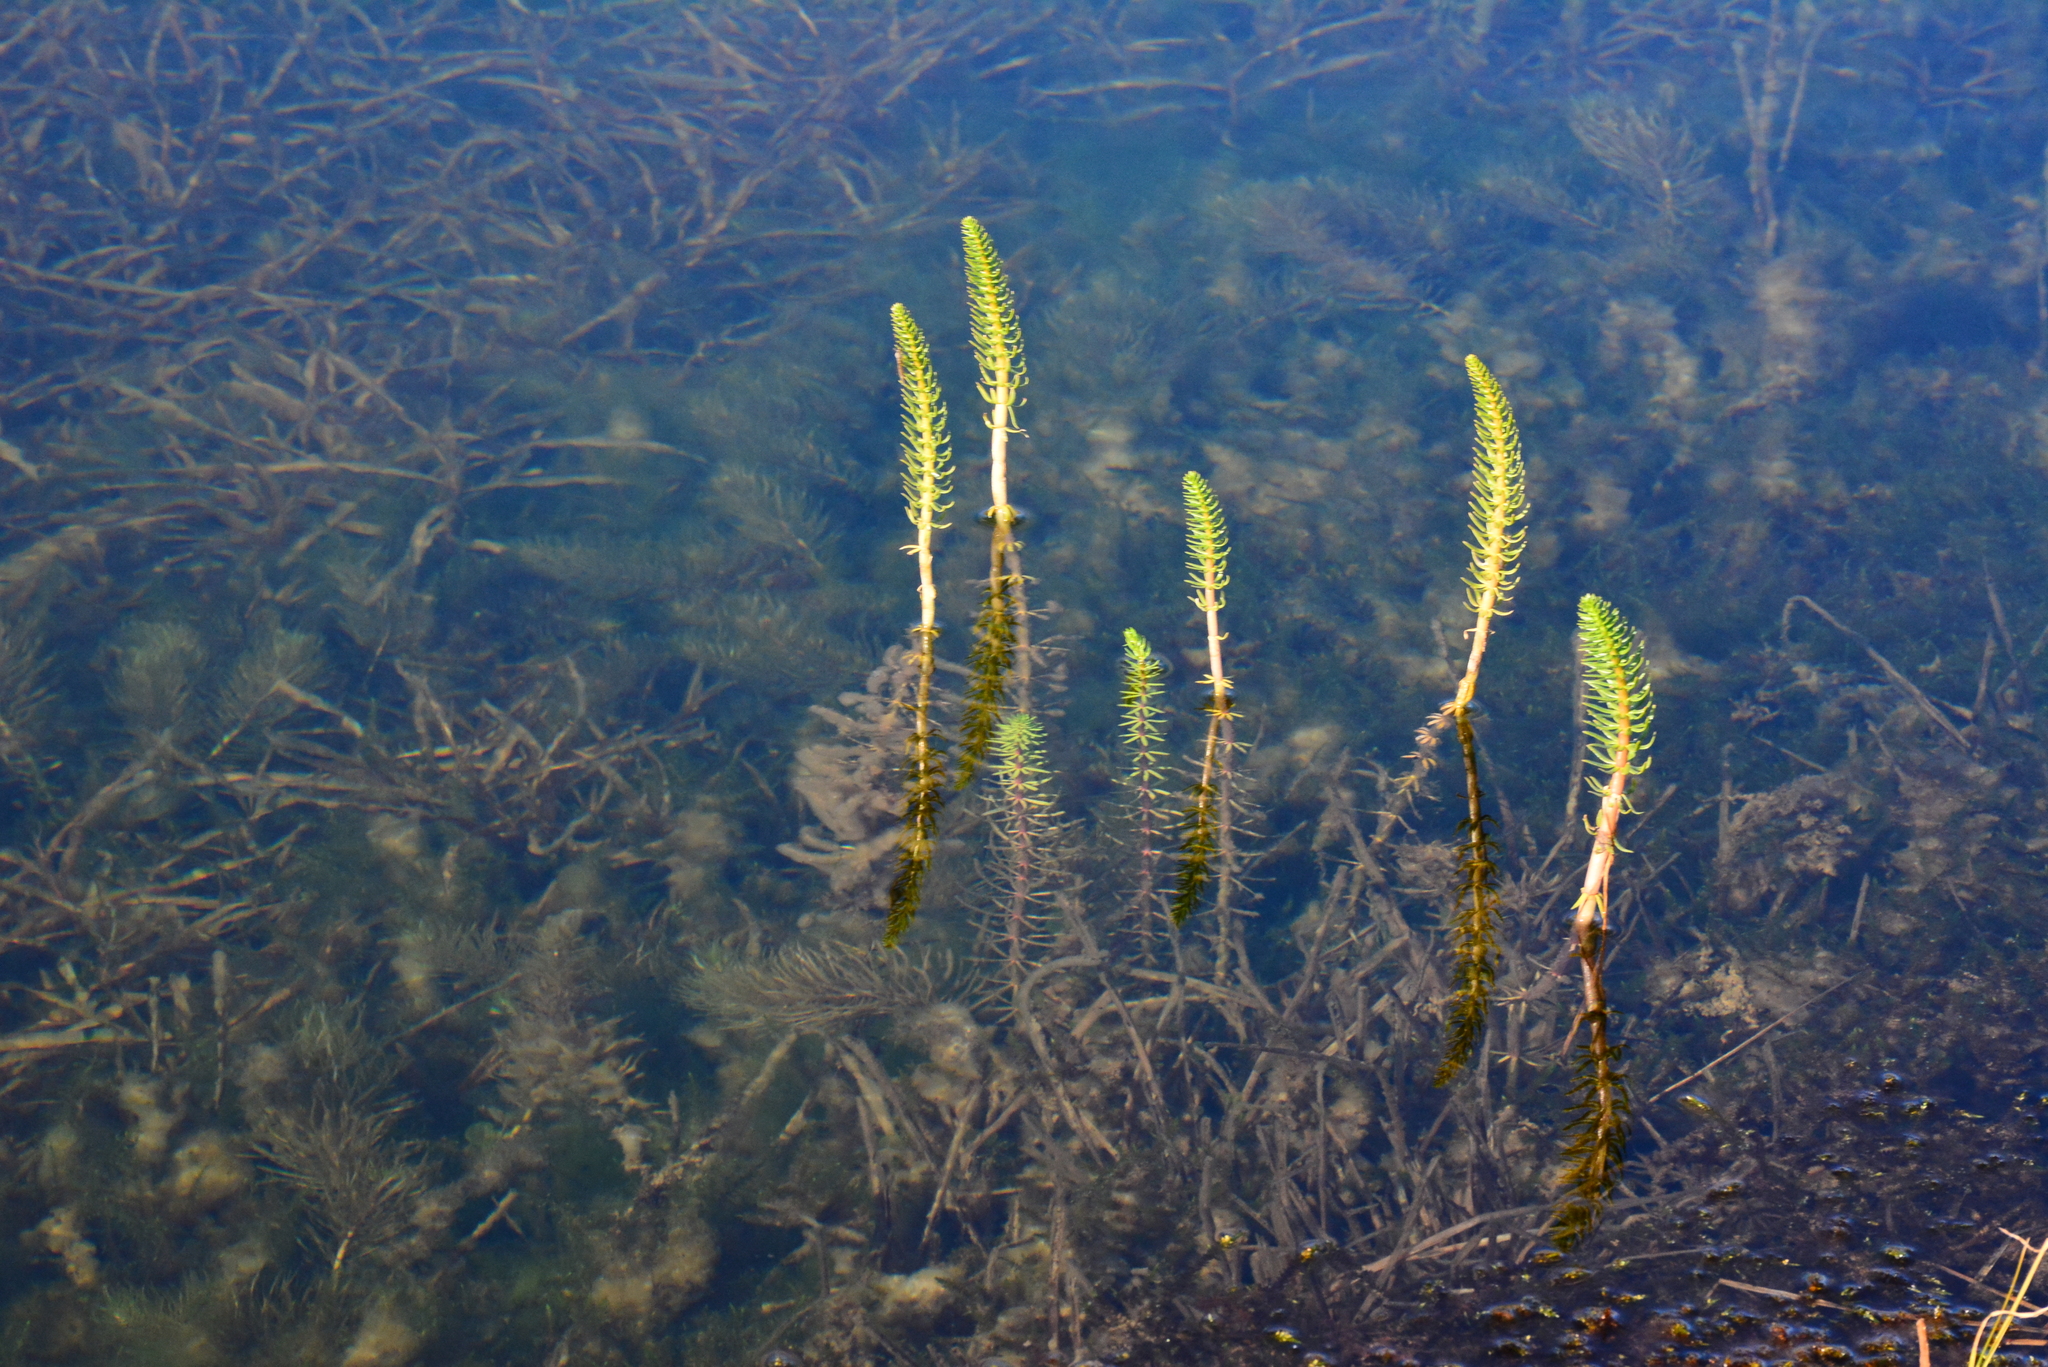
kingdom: Plantae
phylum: Tracheophyta
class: Magnoliopsida
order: Lamiales
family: Plantaginaceae
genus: Hippuris
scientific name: Hippuris vulgaris
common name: Mare's-tail
